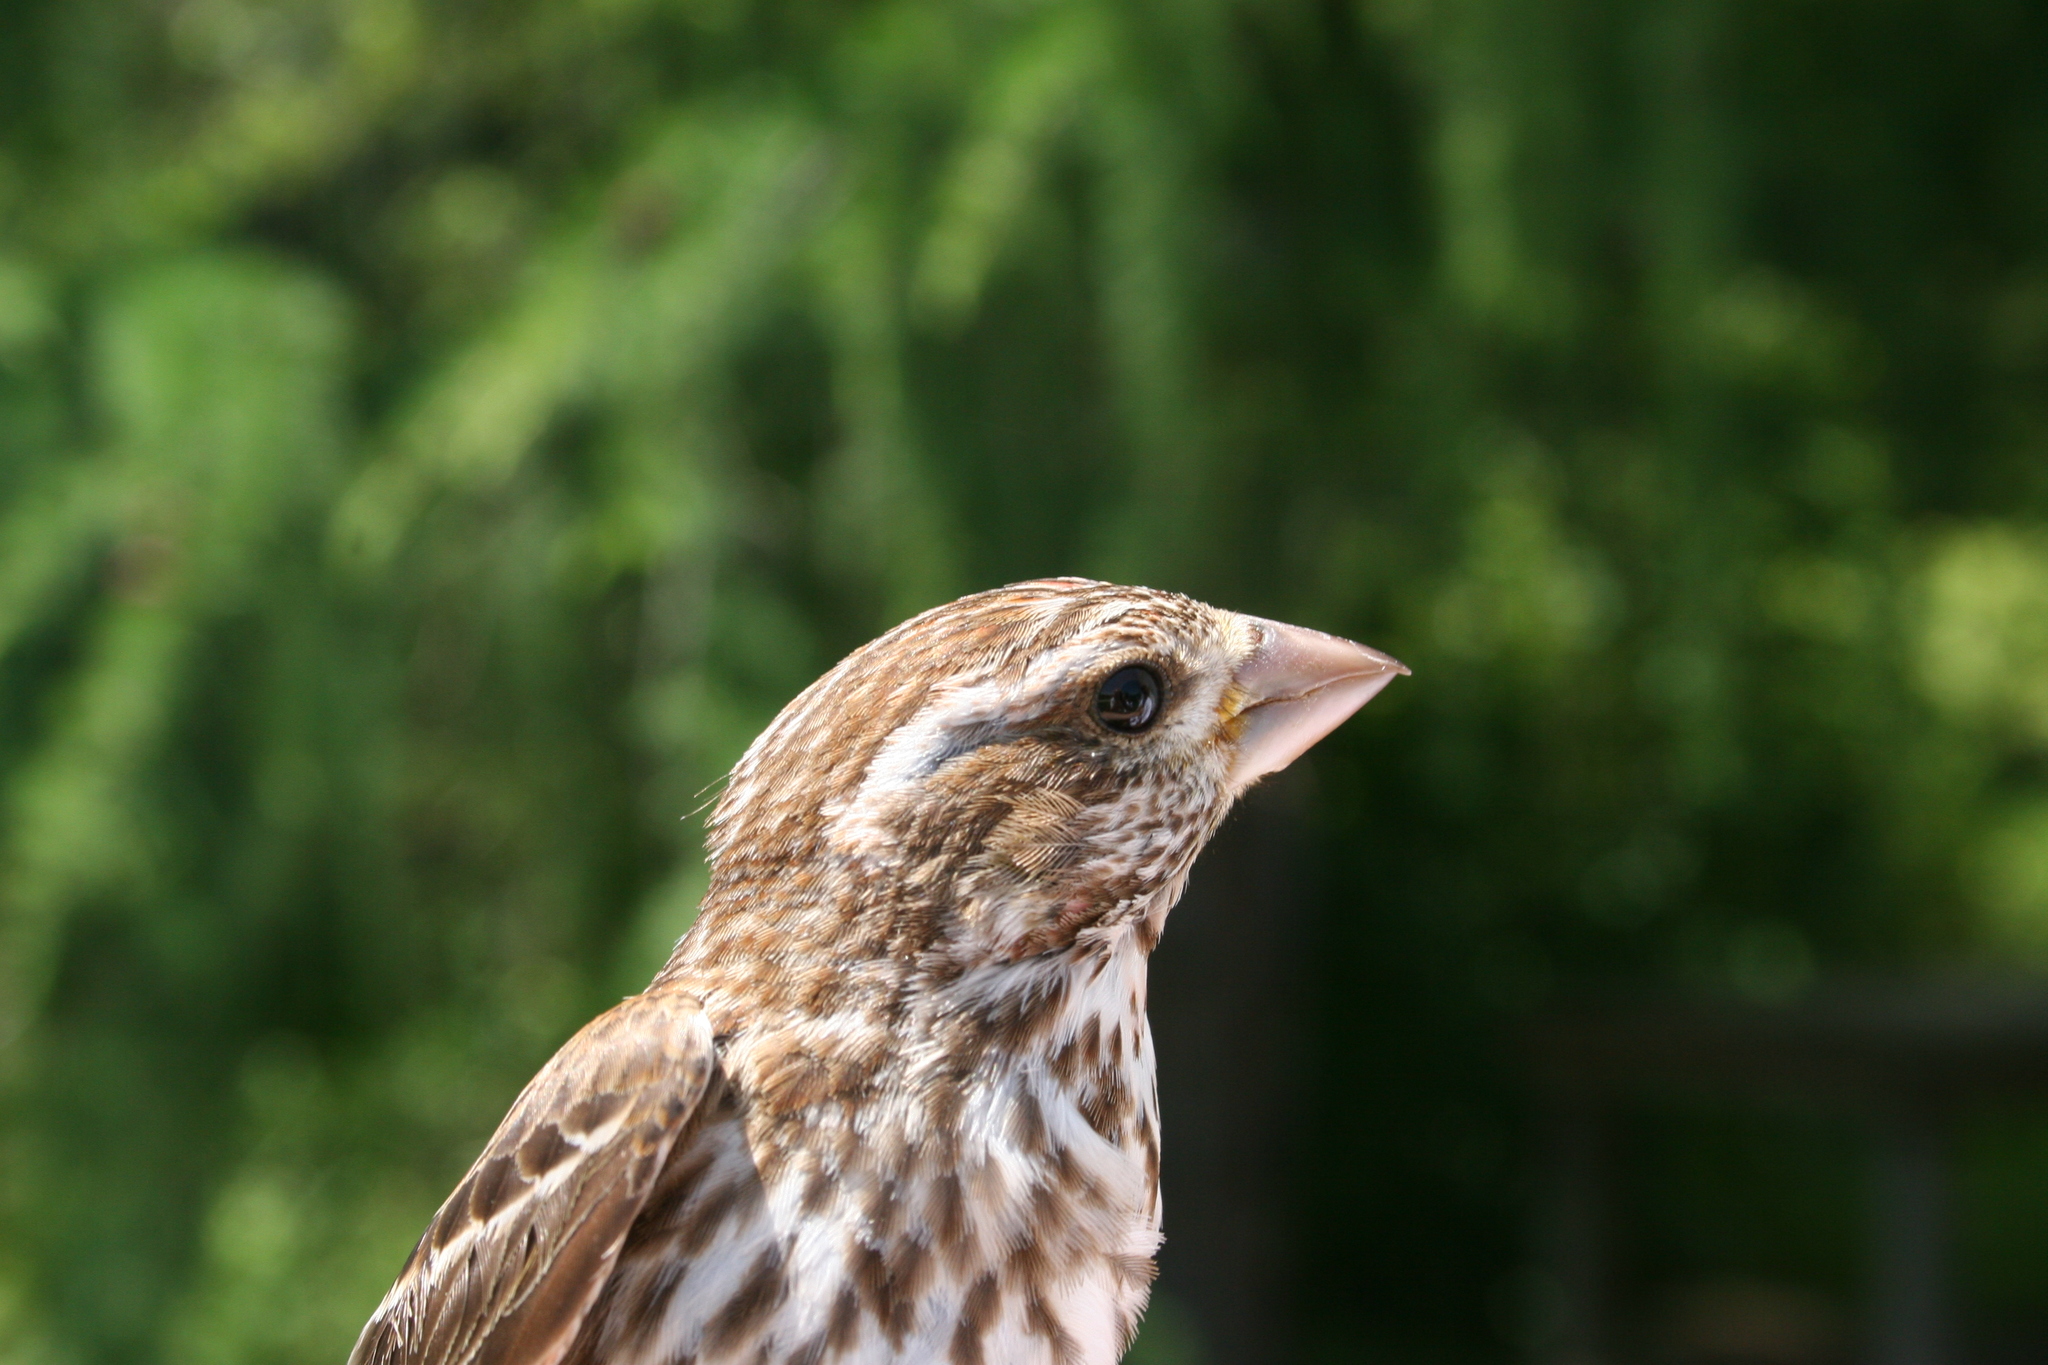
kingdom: Animalia
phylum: Chordata
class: Aves
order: Passeriformes
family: Fringillidae
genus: Haemorhous
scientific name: Haemorhous purpureus
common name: Purple finch
